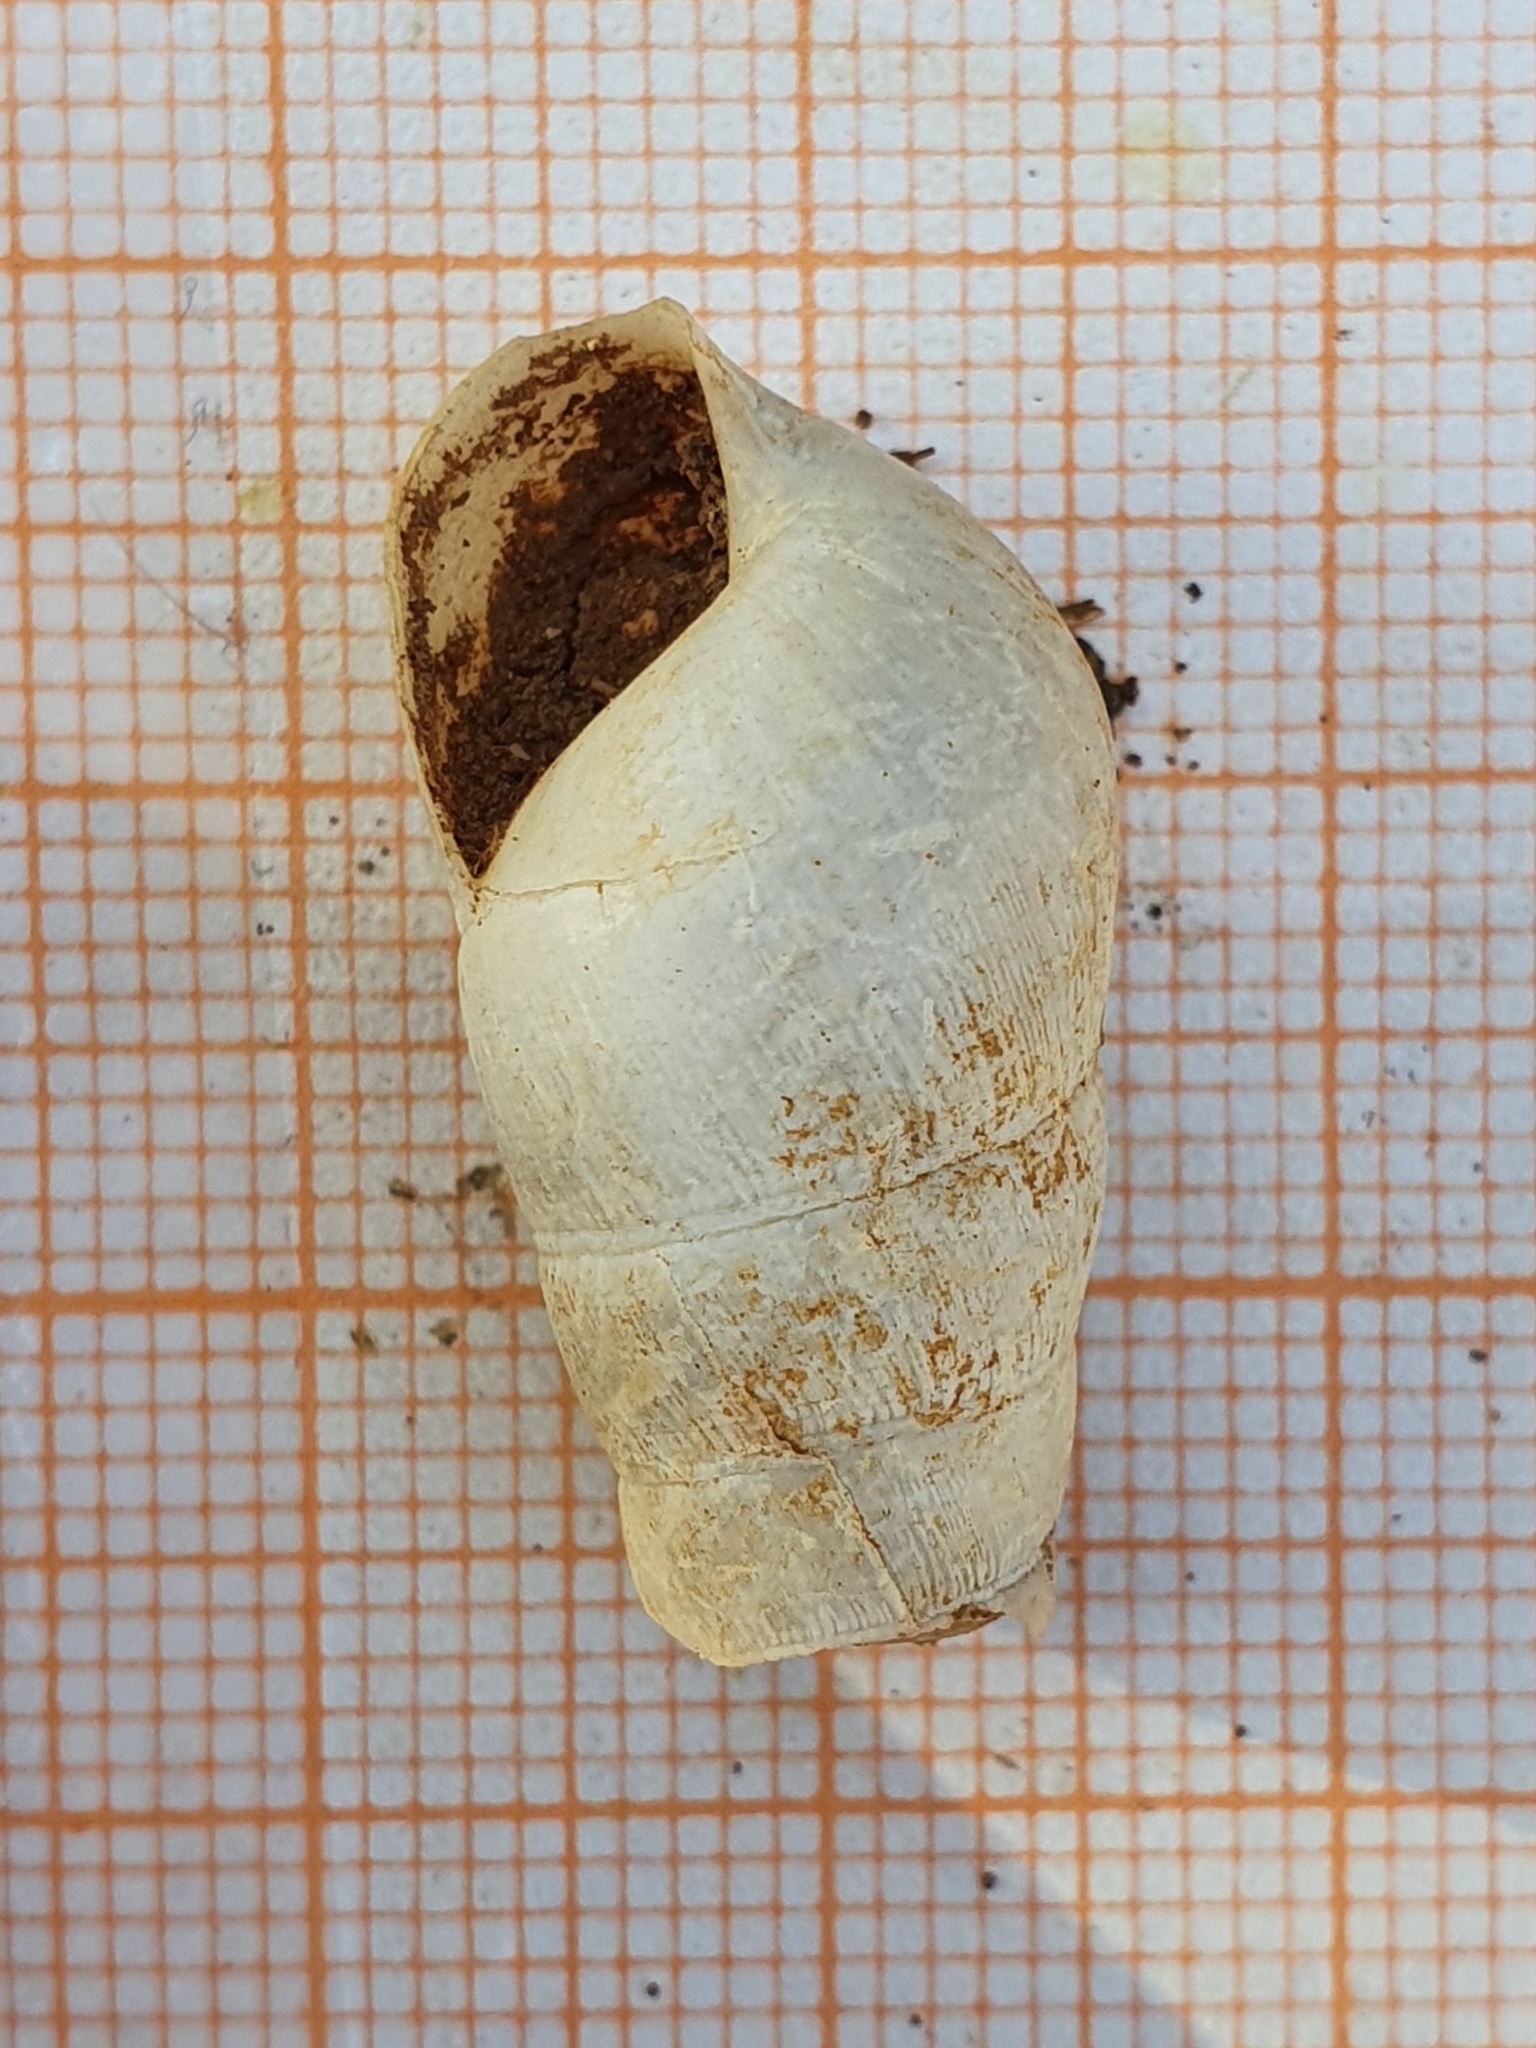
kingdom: Animalia
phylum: Mollusca
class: Gastropoda
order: Stylommatophora
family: Achatinidae
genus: Rumina
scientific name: Rumina decollata
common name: Decollate snail
